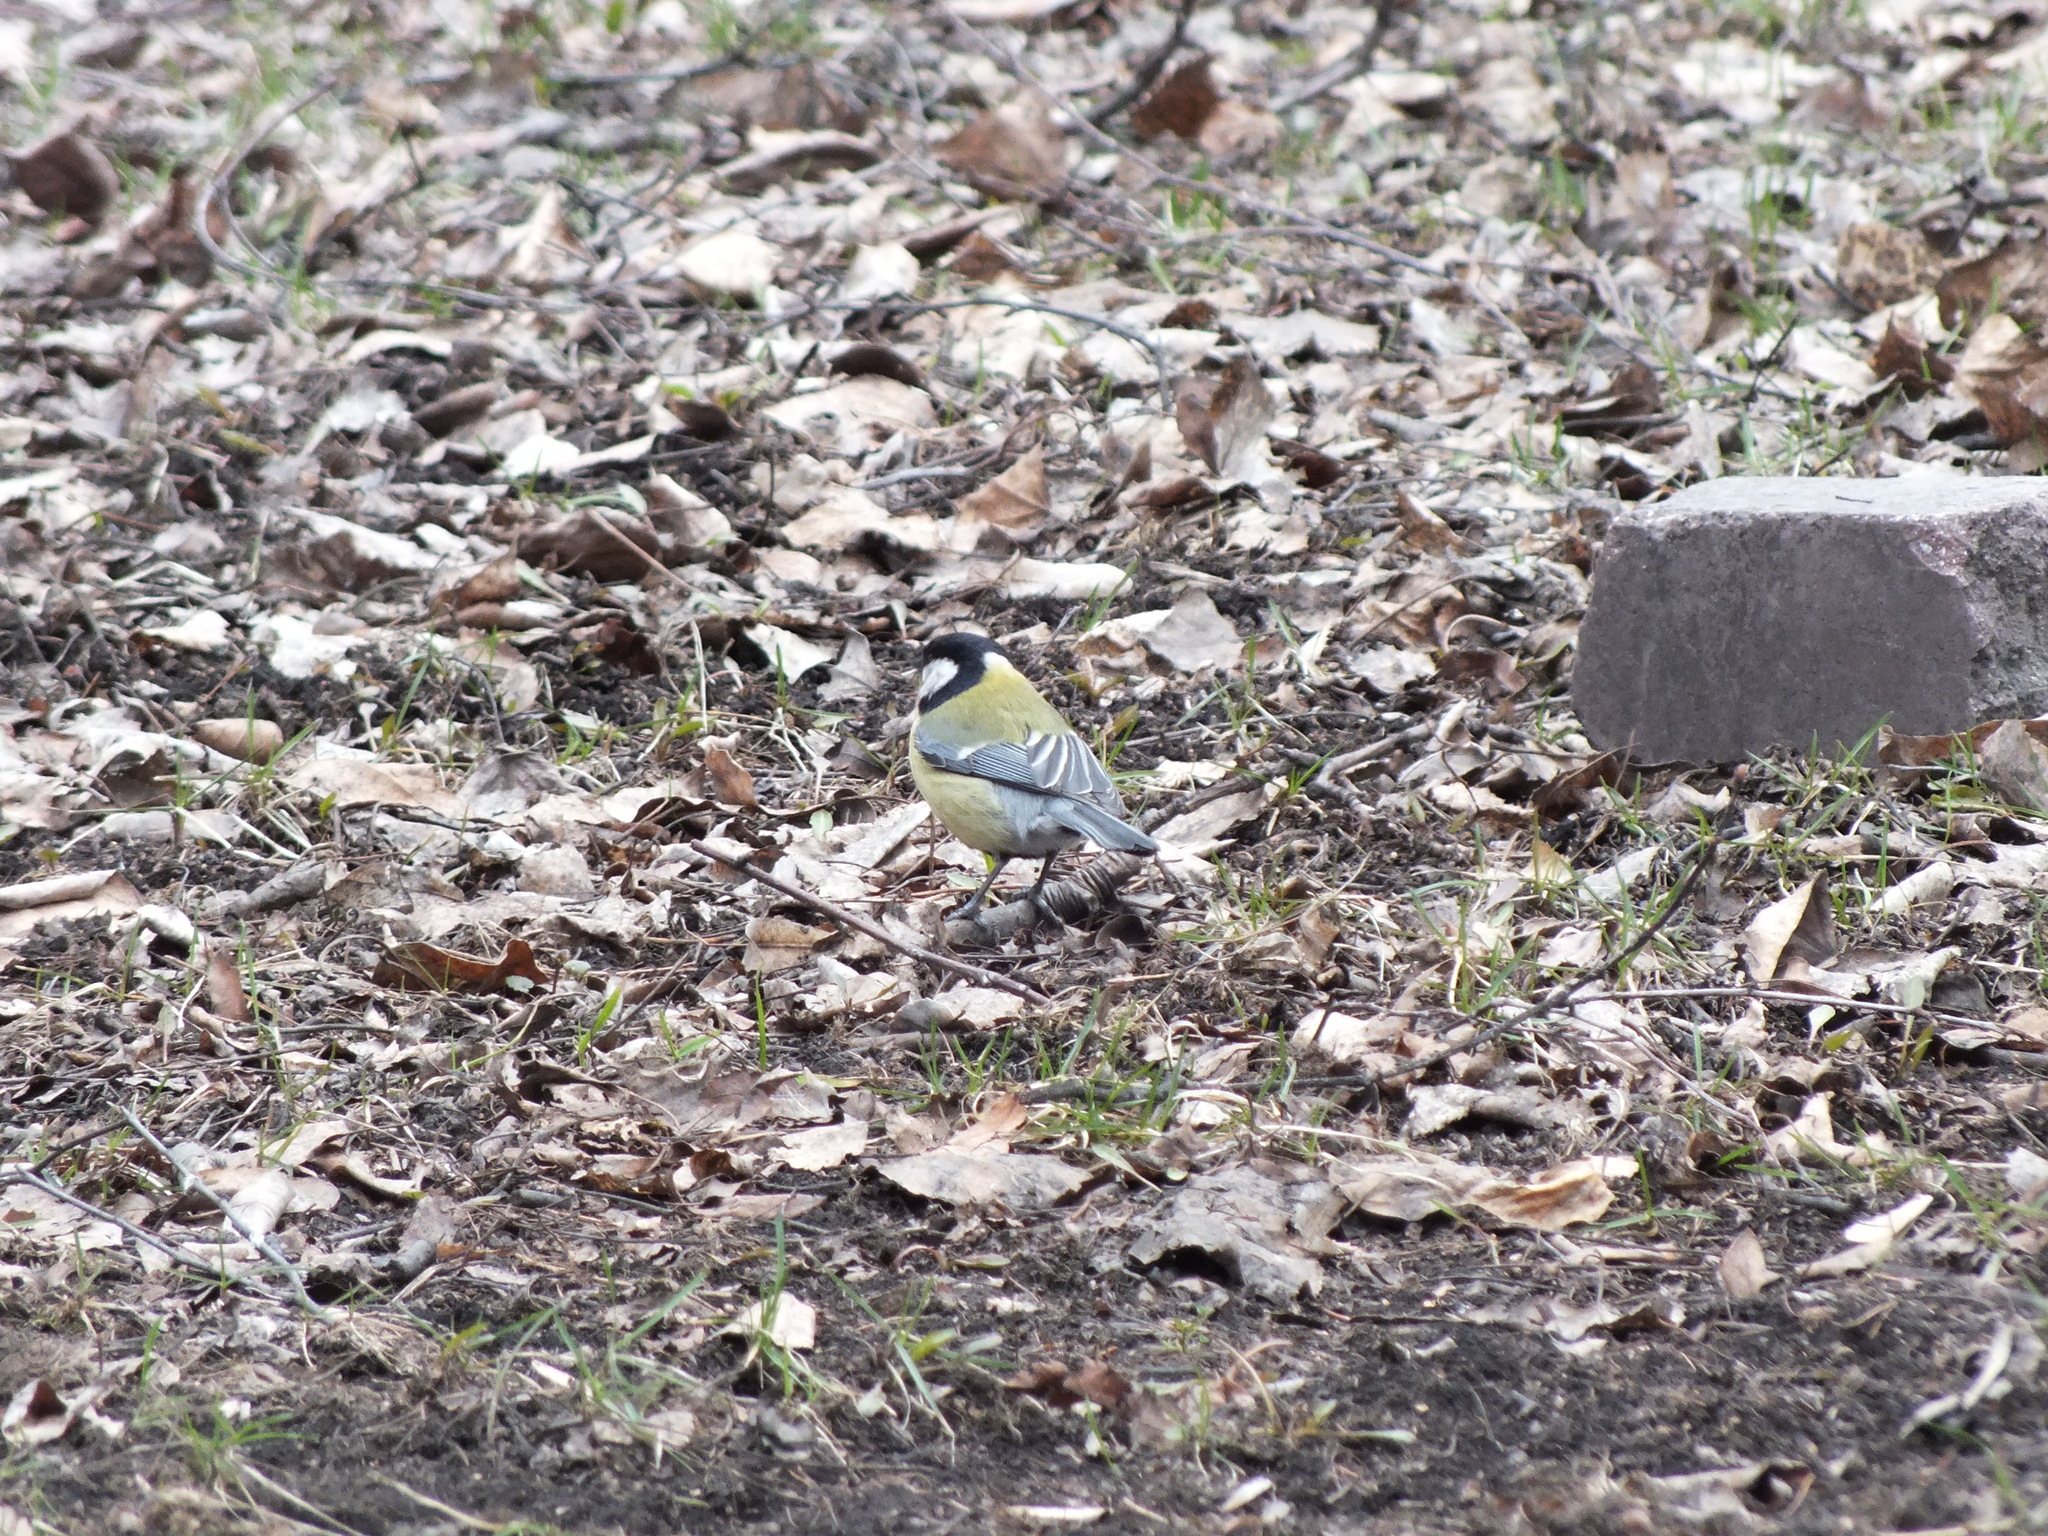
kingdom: Animalia
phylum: Chordata
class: Aves
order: Passeriformes
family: Paridae
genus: Parus
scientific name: Parus major
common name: Great tit
